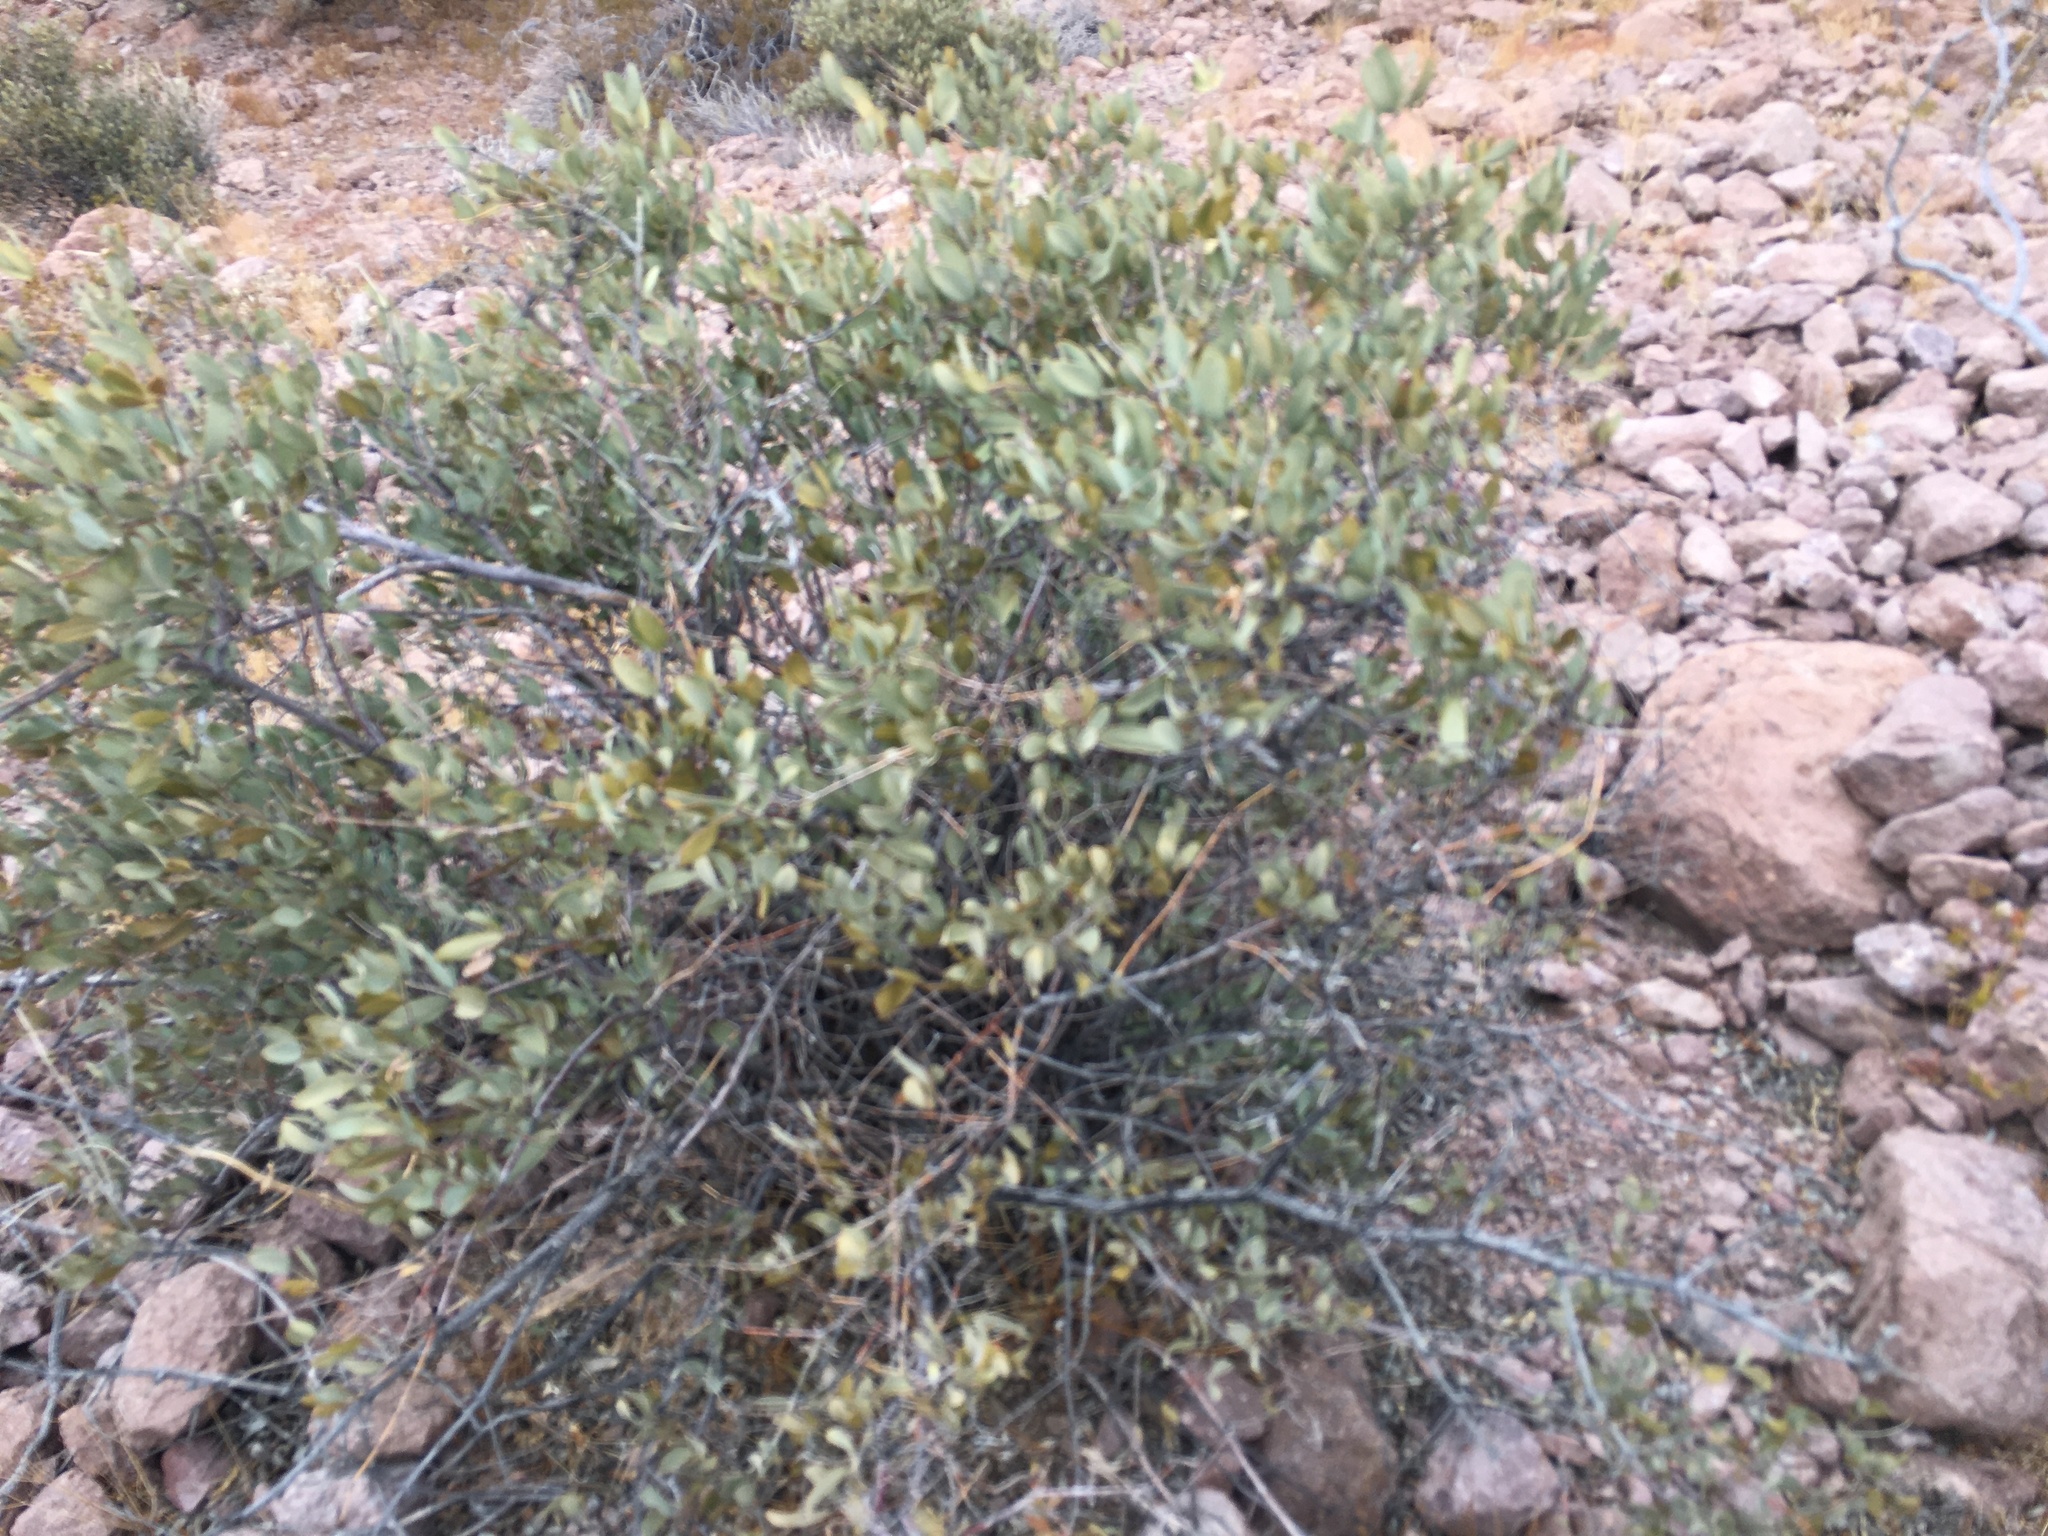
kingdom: Plantae
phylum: Tracheophyta
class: Magnoliopsida
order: Caryophyllales
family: Simmondsiaceae
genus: Simmondsia
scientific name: Simmondsia chinensis
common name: Jojoba
